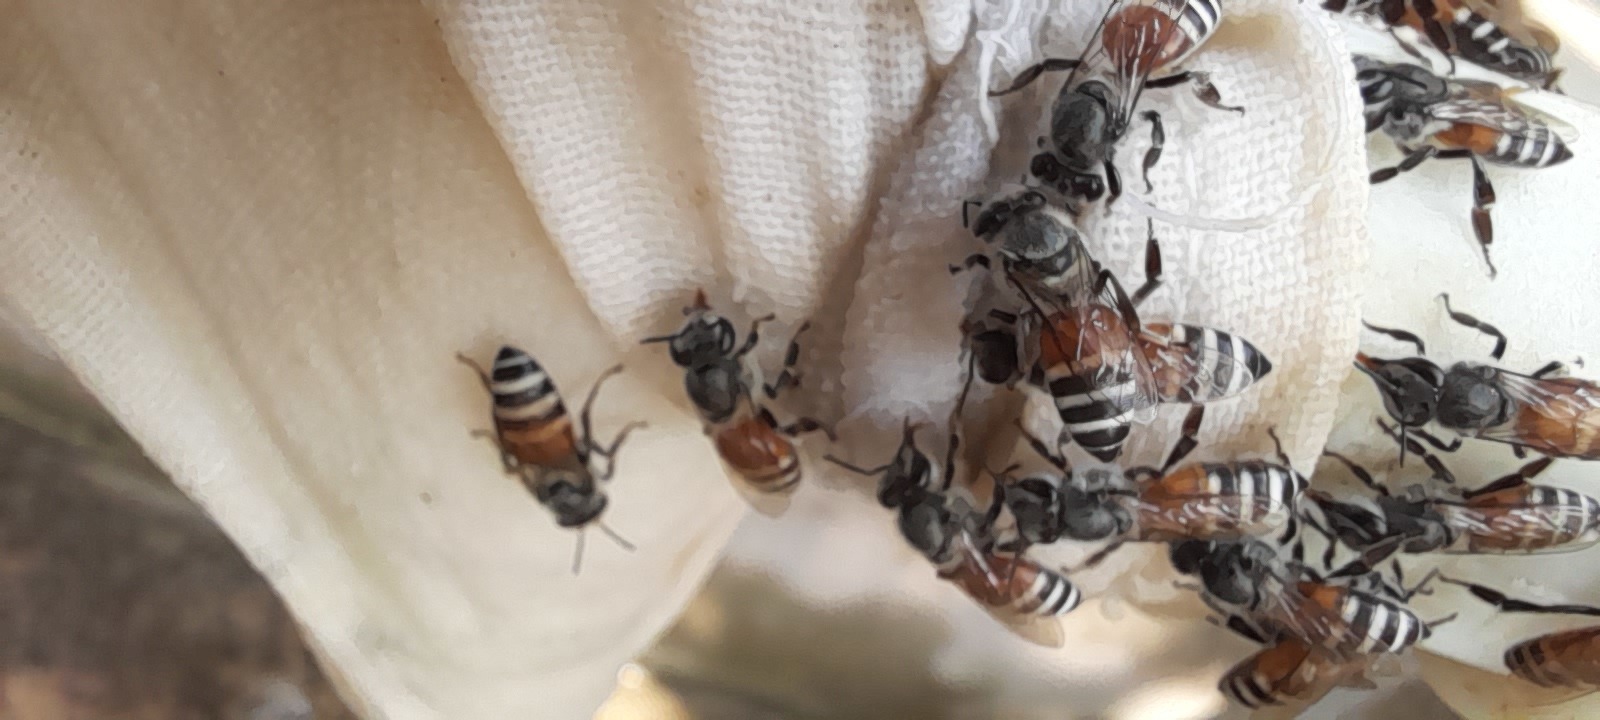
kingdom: Animalia
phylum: Arthropoda
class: Insecta
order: Hymenoptera
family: Apidae
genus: Apis
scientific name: Apis florea
